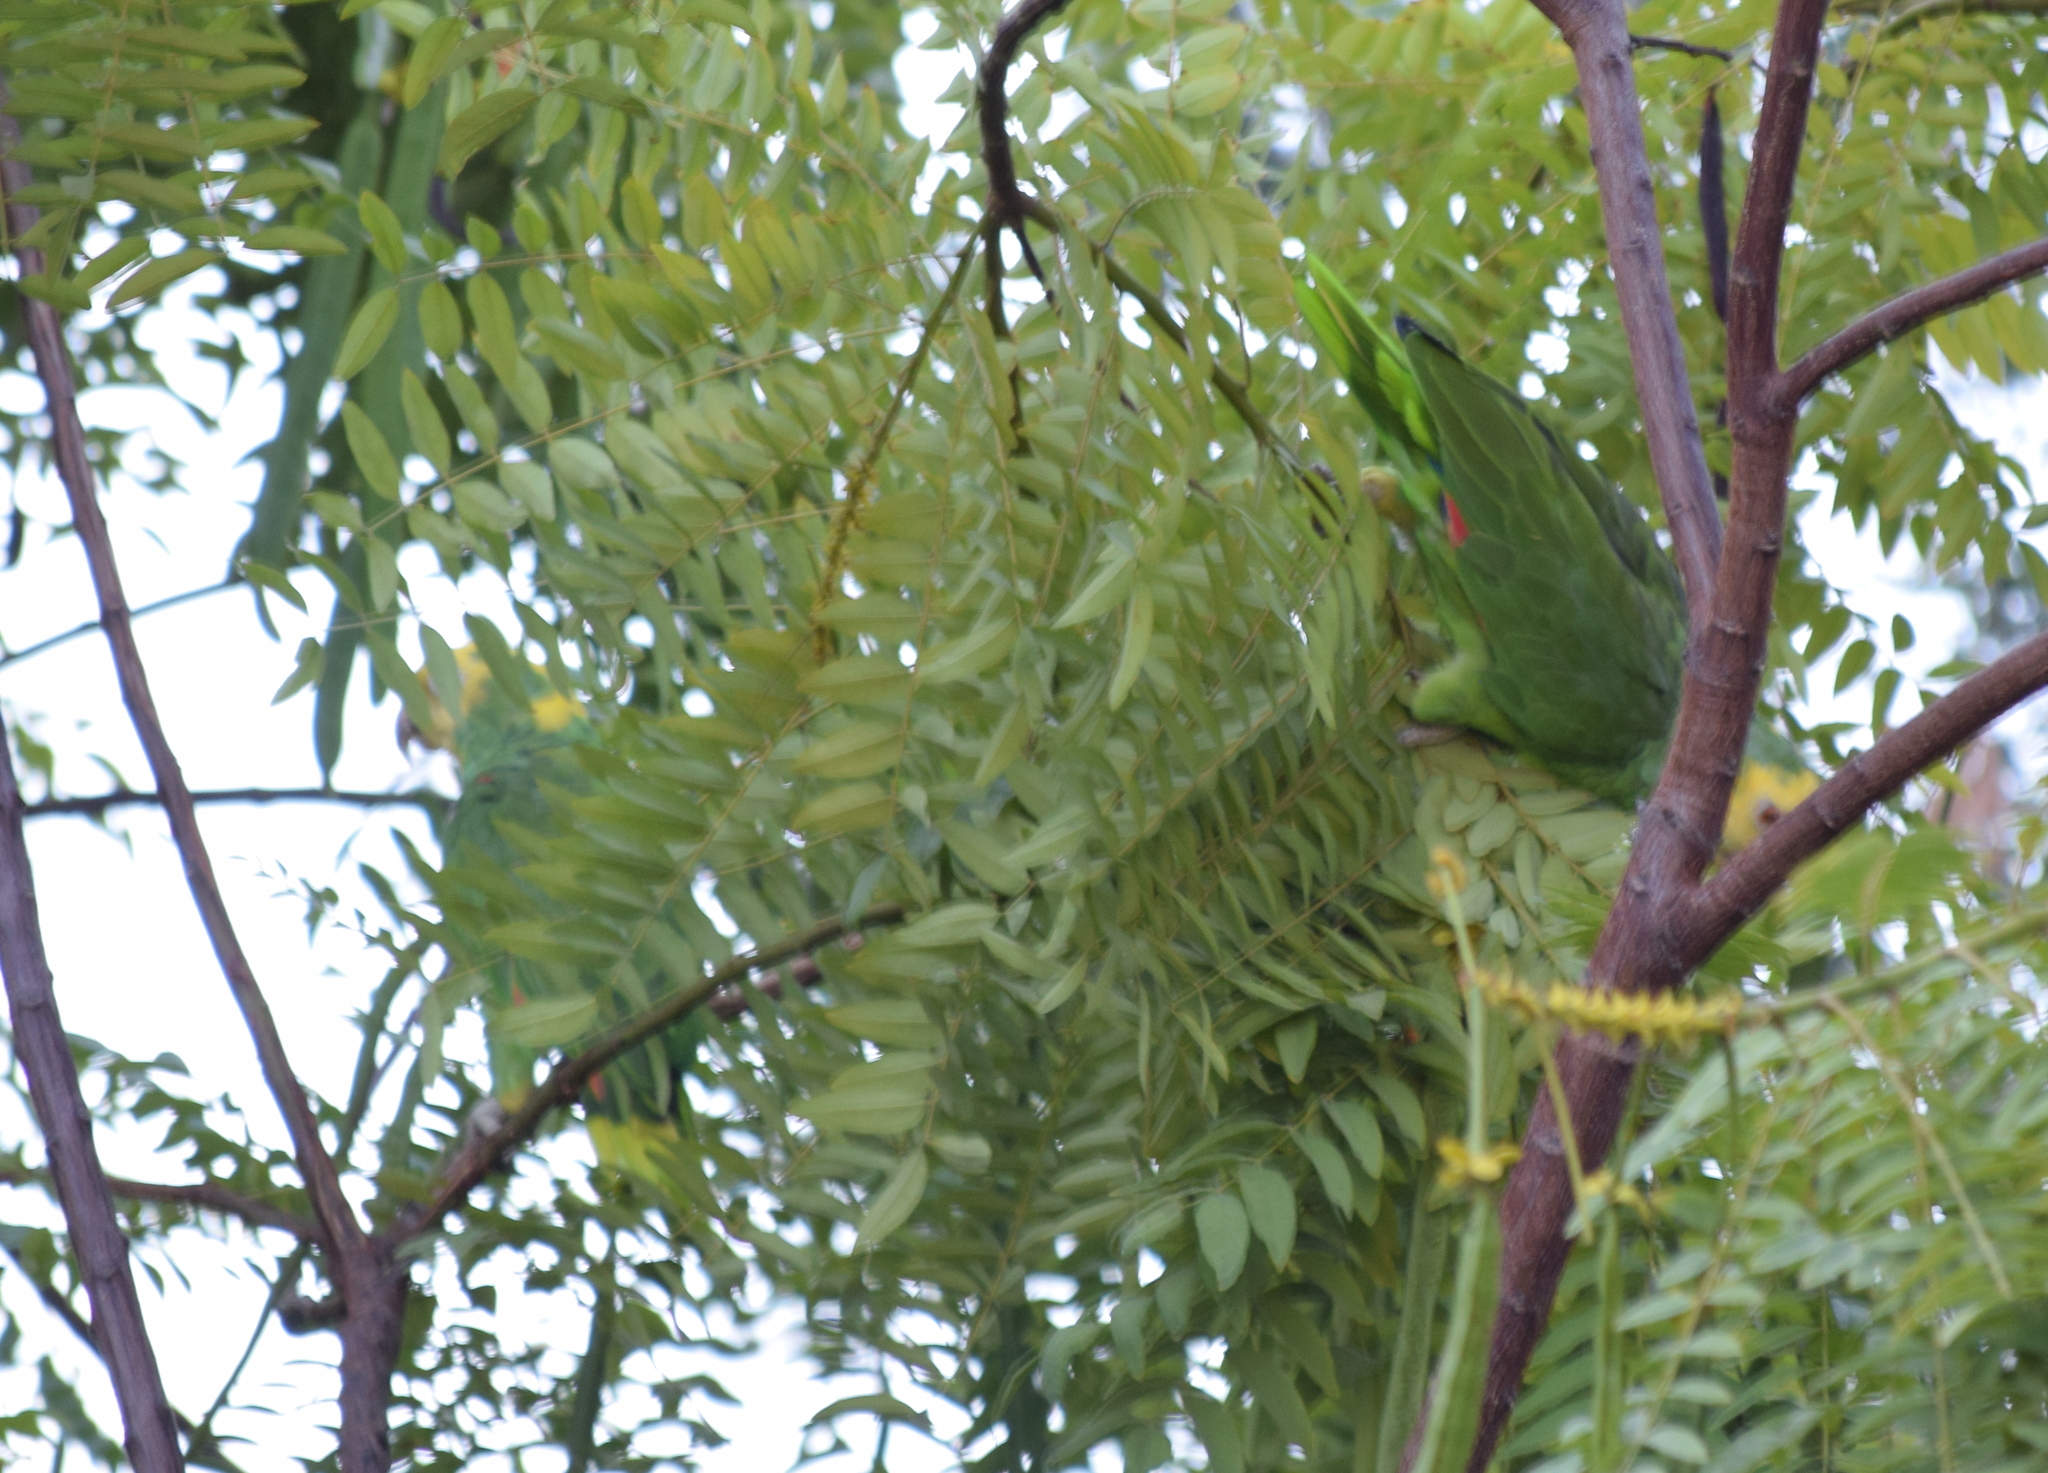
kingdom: Animalia
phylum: Chordata
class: Aves
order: Psittaciformes
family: Psittacidae
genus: Amazona
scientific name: Amazona oratrix
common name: Yellow-headed amazon
